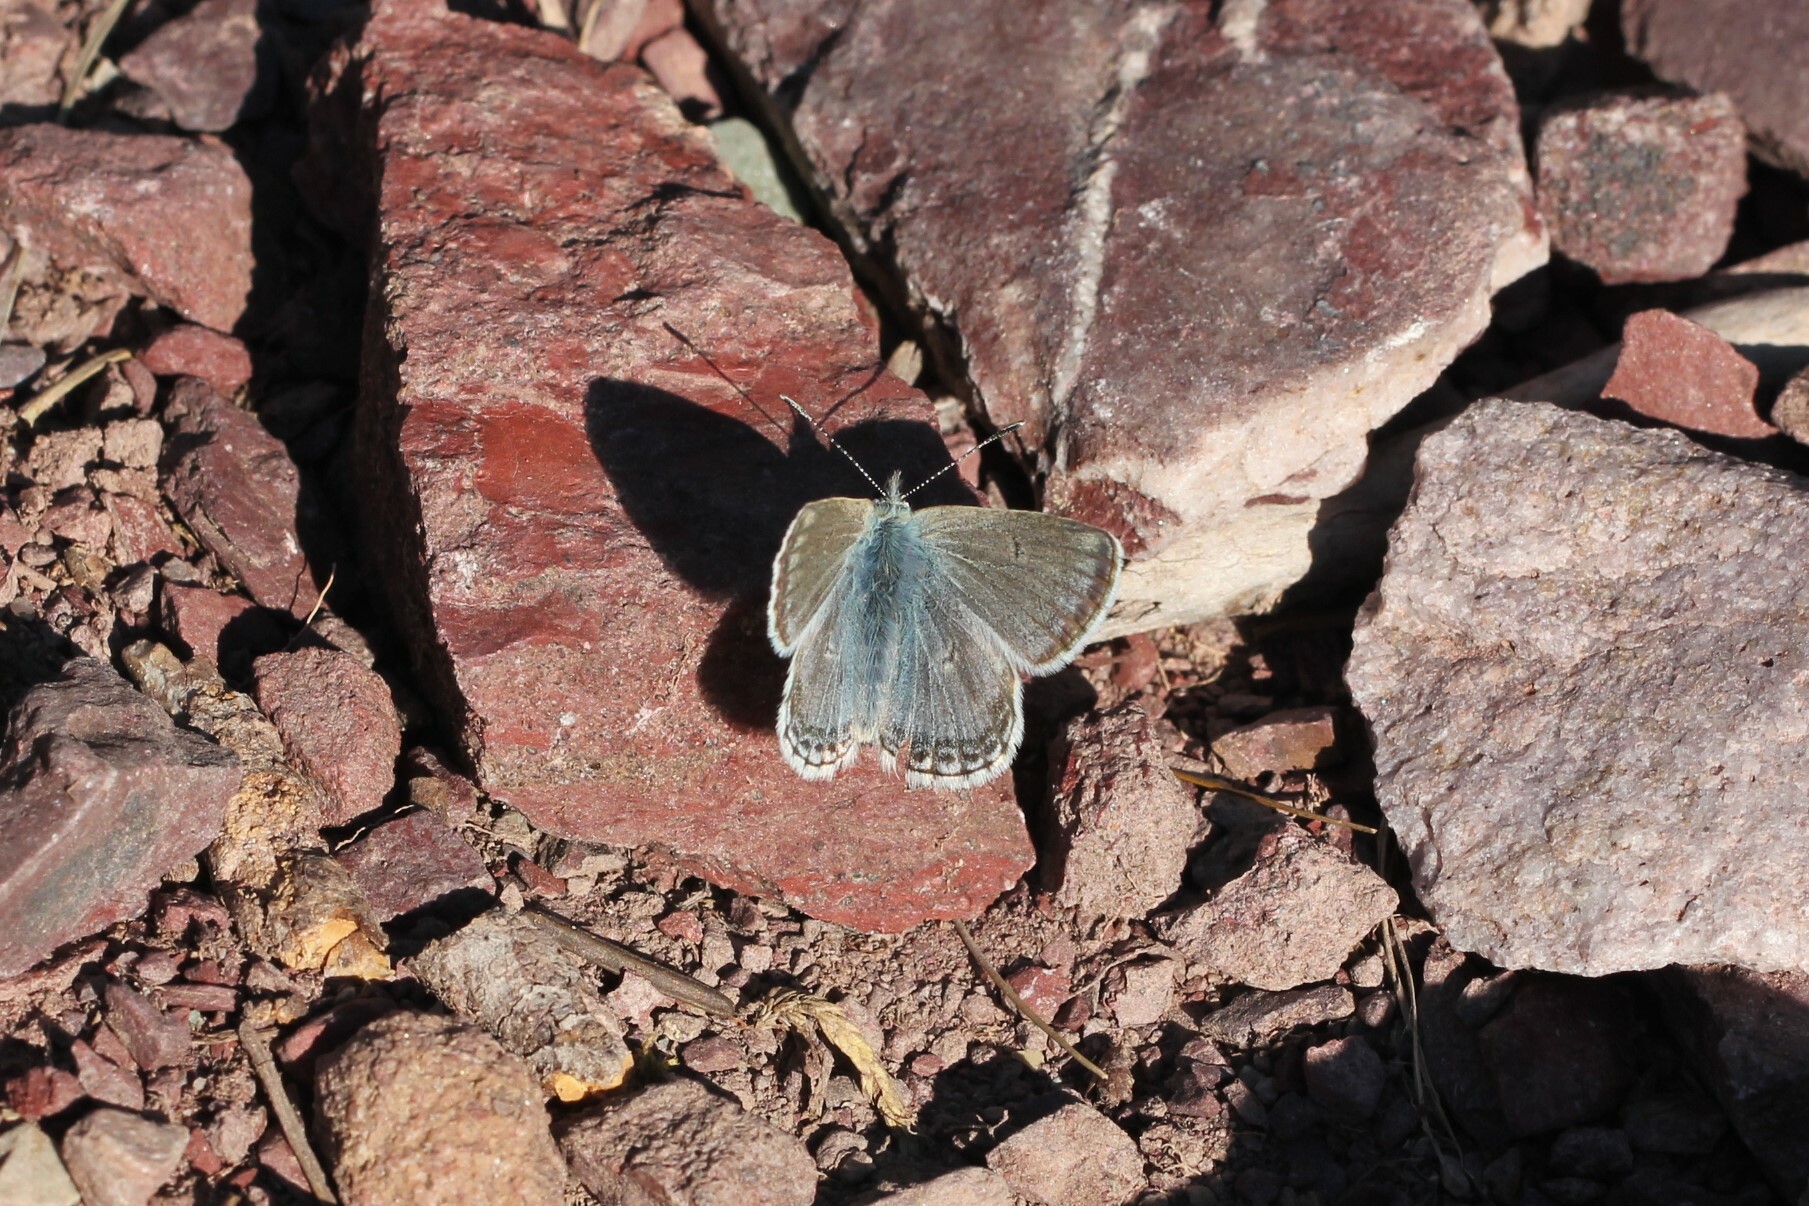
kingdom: Animalia
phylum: Arthropoda
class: Insecta
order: Lepidoptera
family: Lycaenidae
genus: Agriades
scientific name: Agriades glandon
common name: Glandon blue
